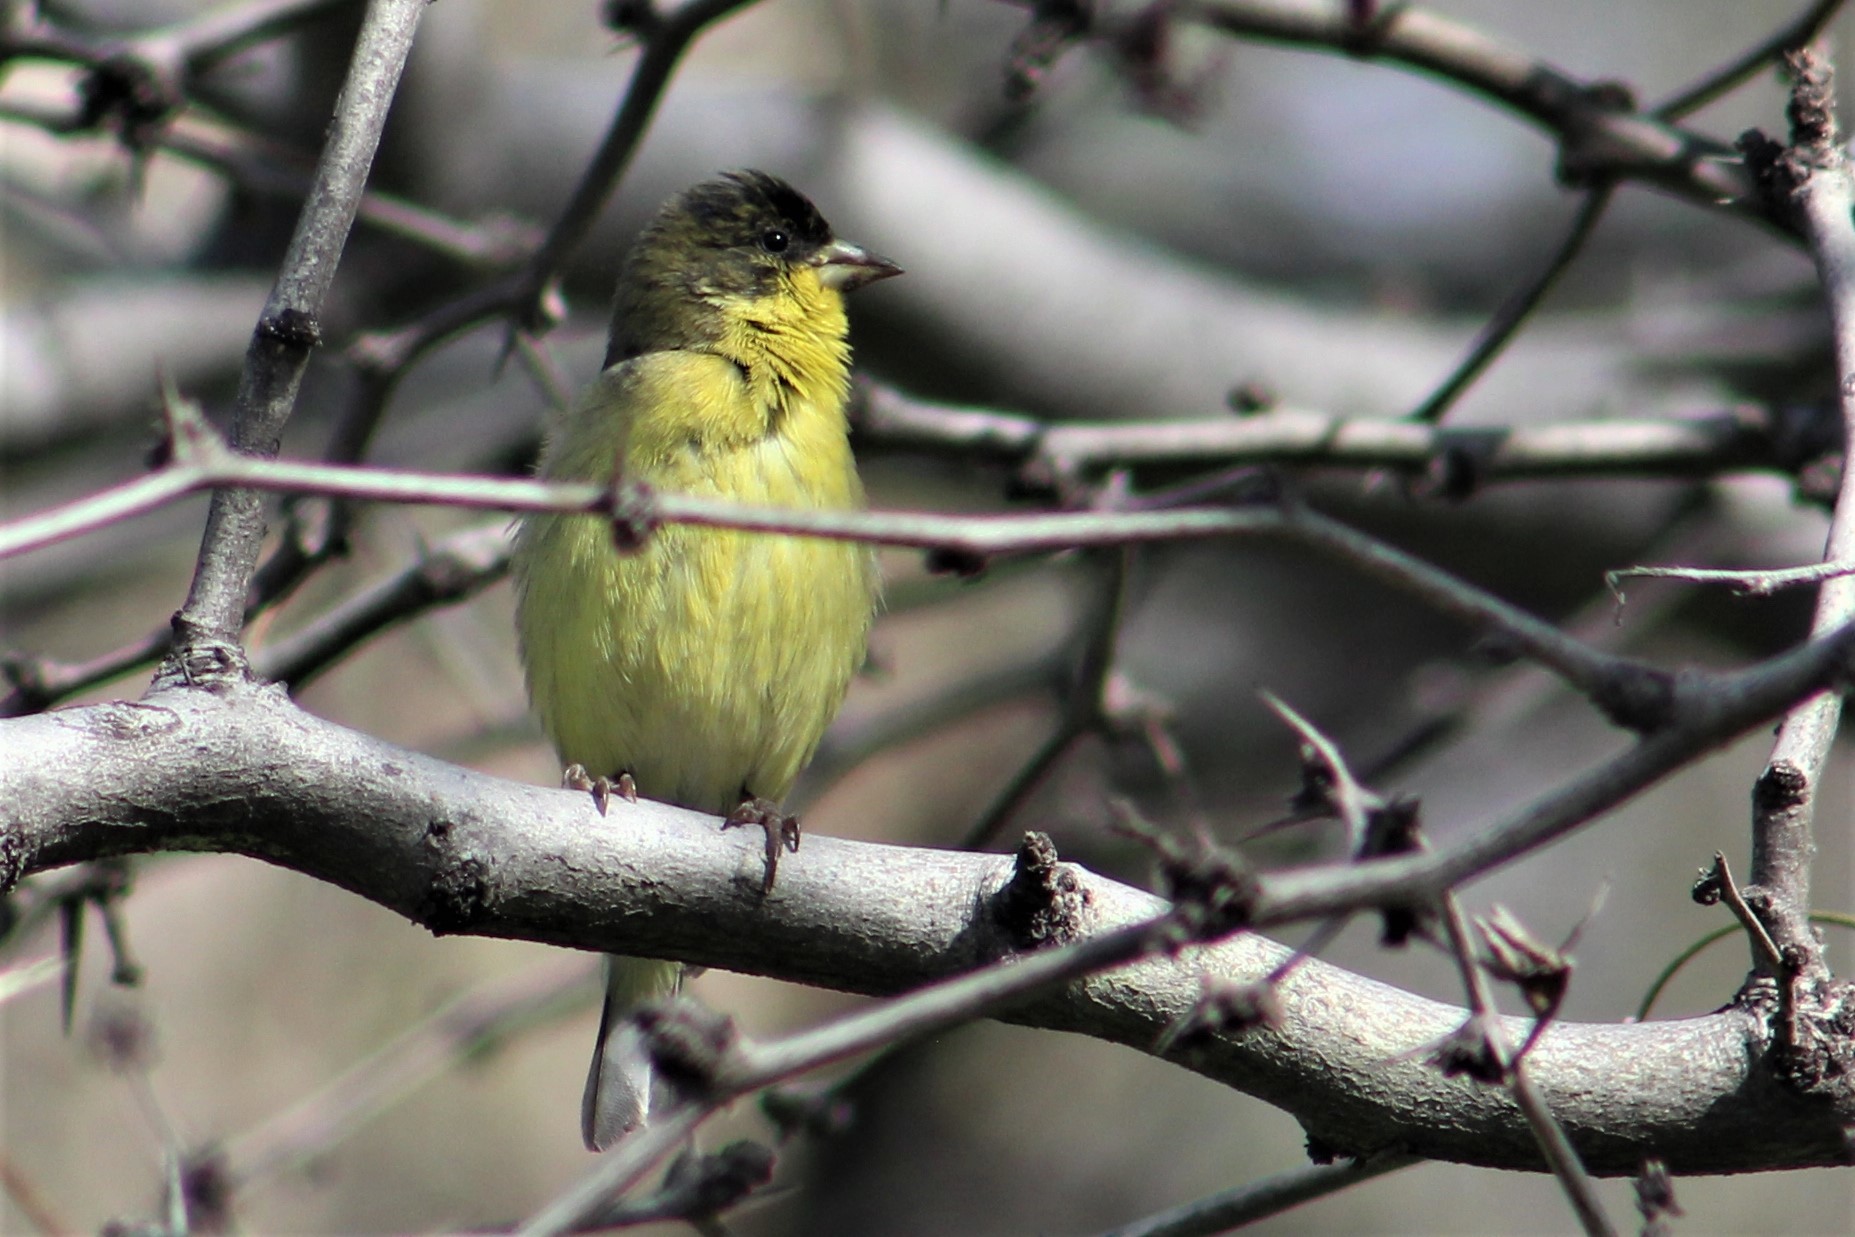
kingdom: Animalia
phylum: Chordata
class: Aves
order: Passeriformes
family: Fringillidae
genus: Spinus
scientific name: Spinus psaltria
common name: Lesser goldfinch
